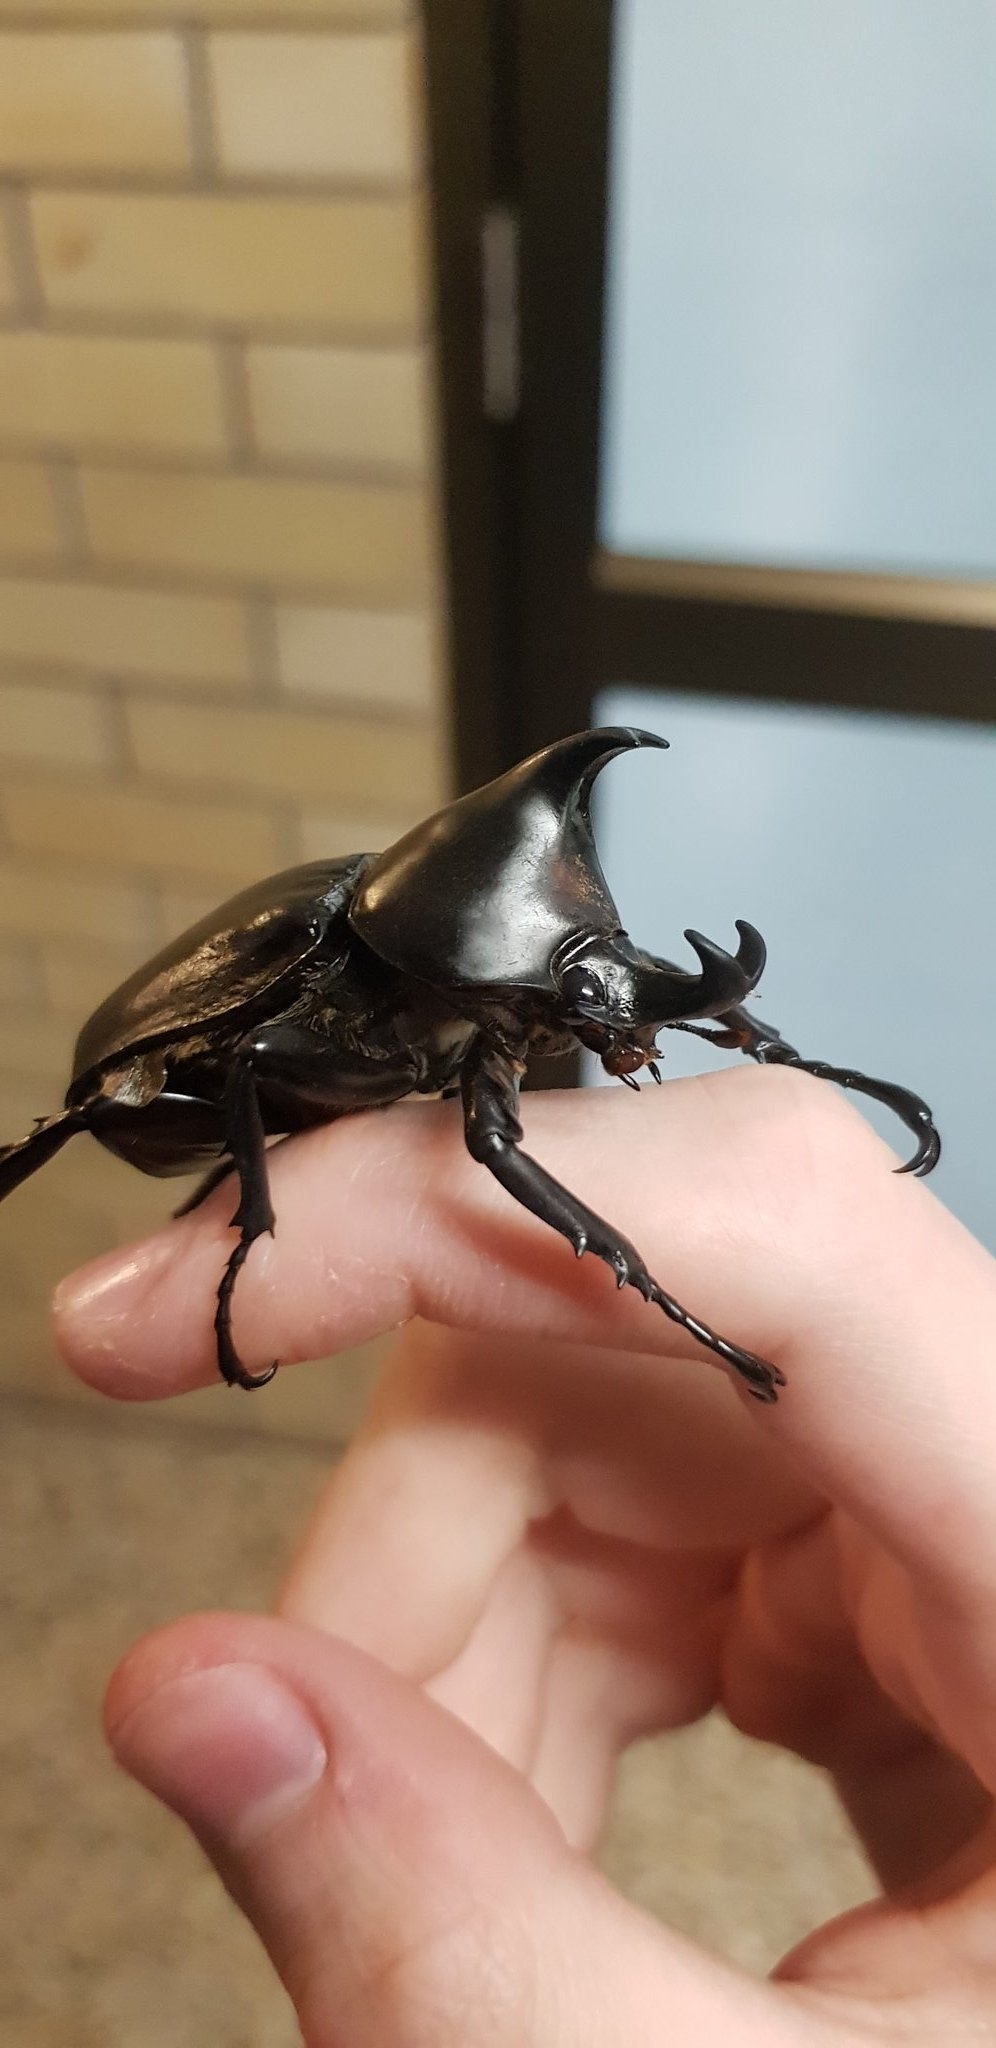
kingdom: Animalia
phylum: Arthropoda
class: Insecta
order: Coleoptera
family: Scarabaeidae
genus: Xylotrupes
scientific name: Xylotrupes australicus
